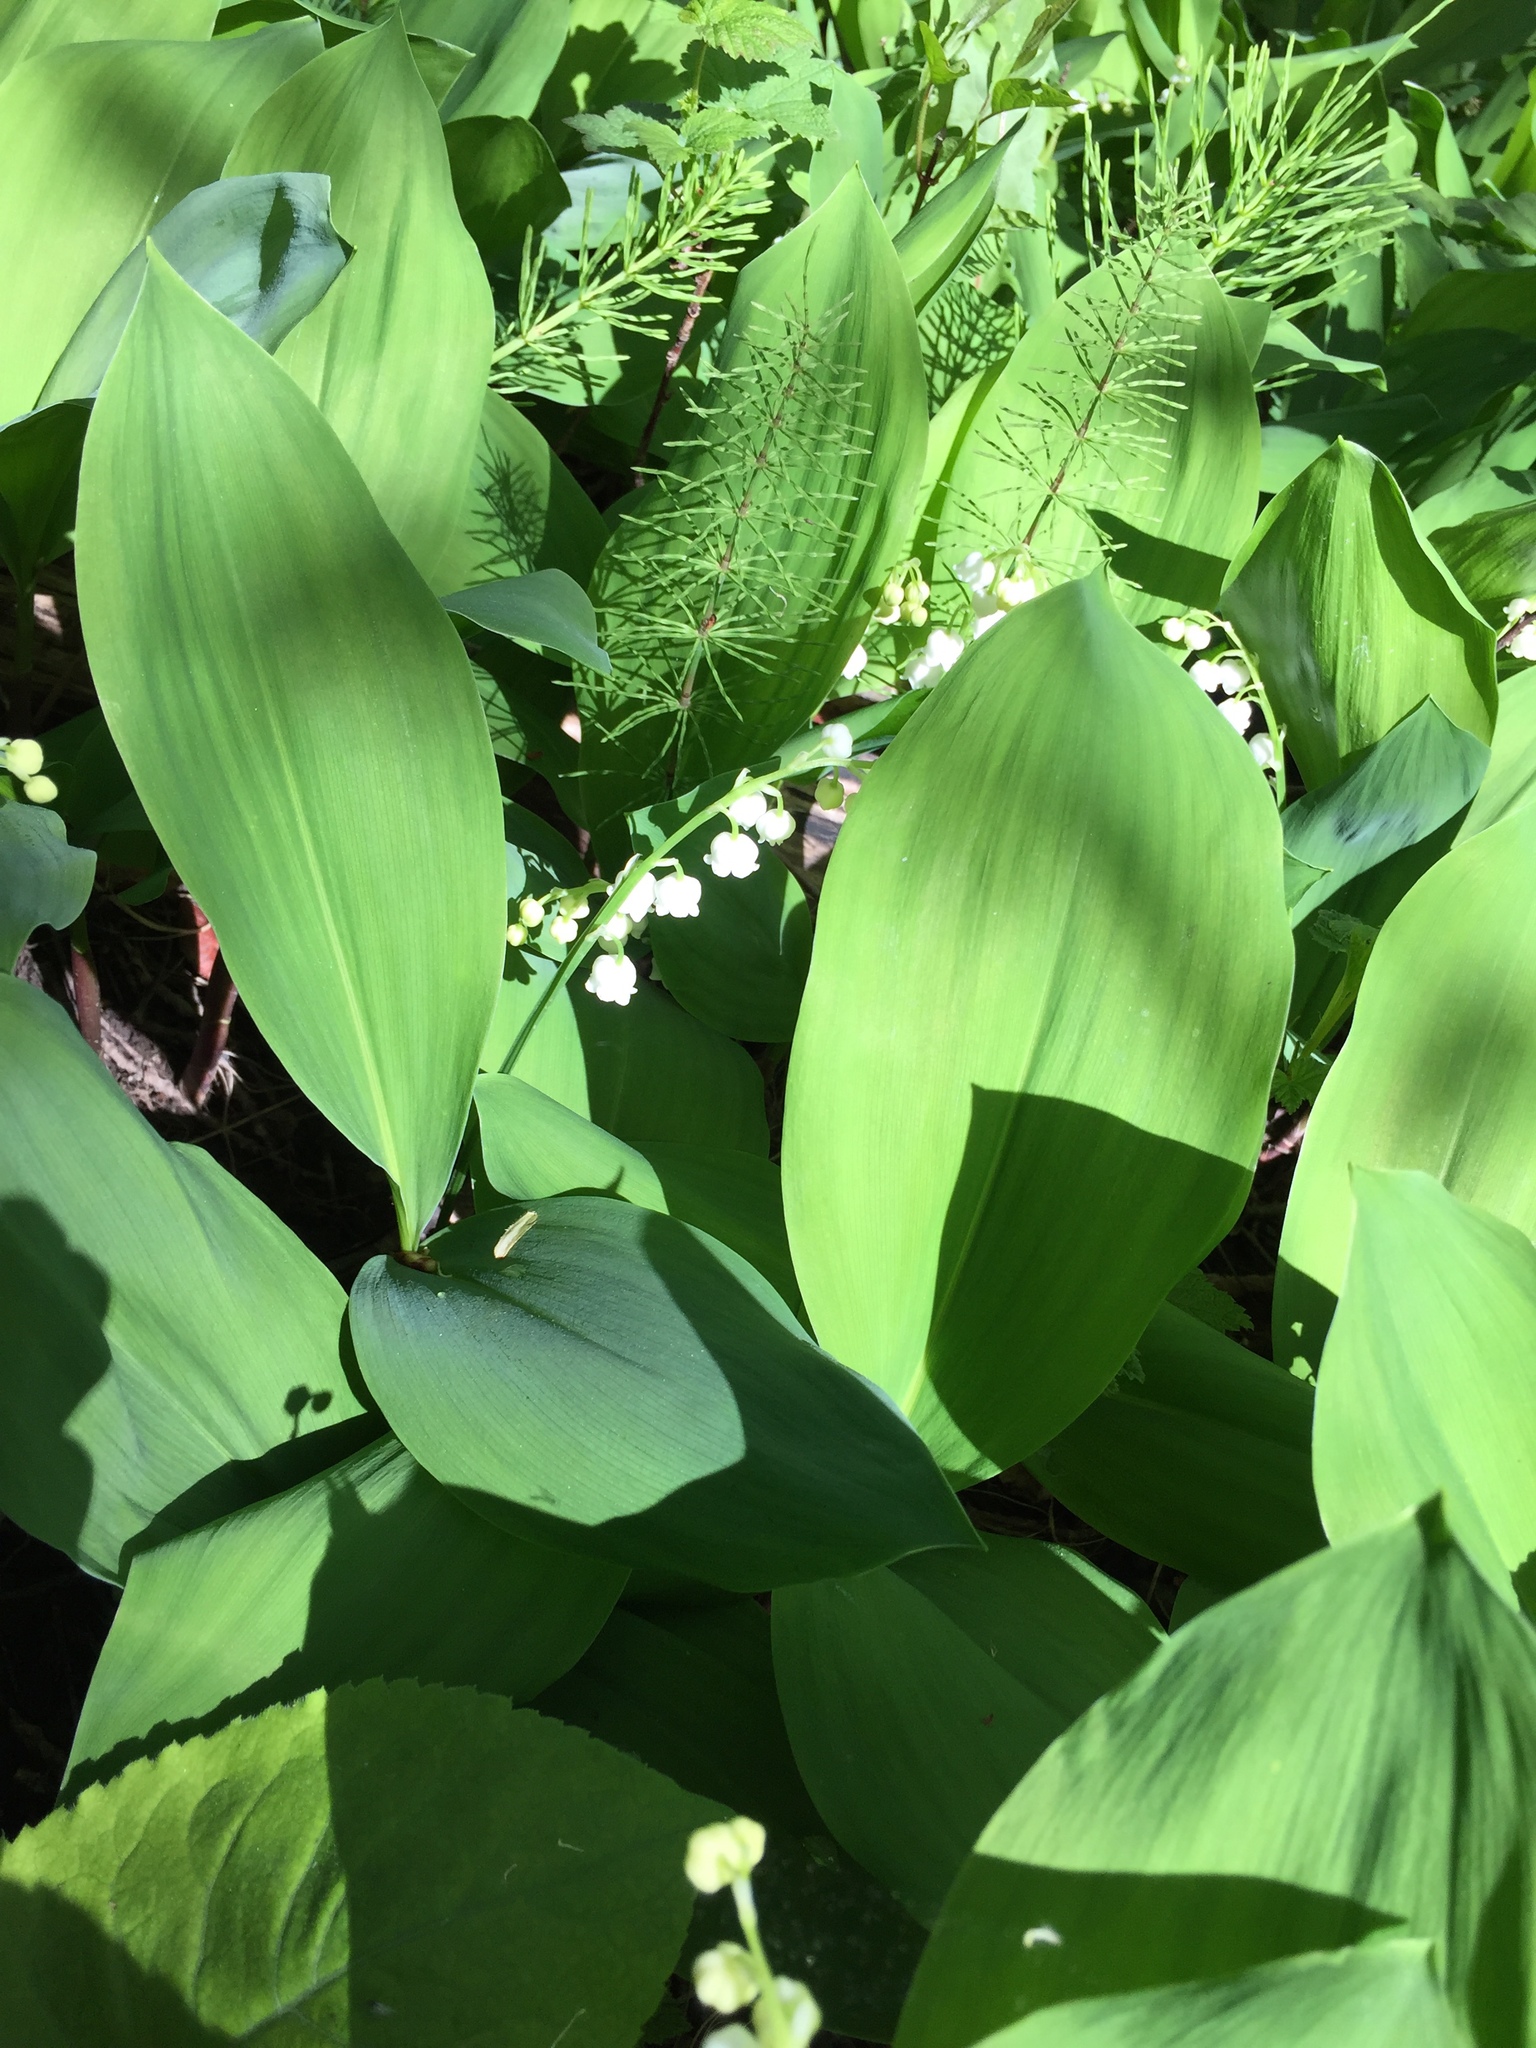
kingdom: Plantae
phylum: Tracheophyta
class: Liliopsida
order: Asparagales
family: Asparagaceae
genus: Convallaria
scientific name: Convallaria majalis
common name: Lily-of-the-valley
